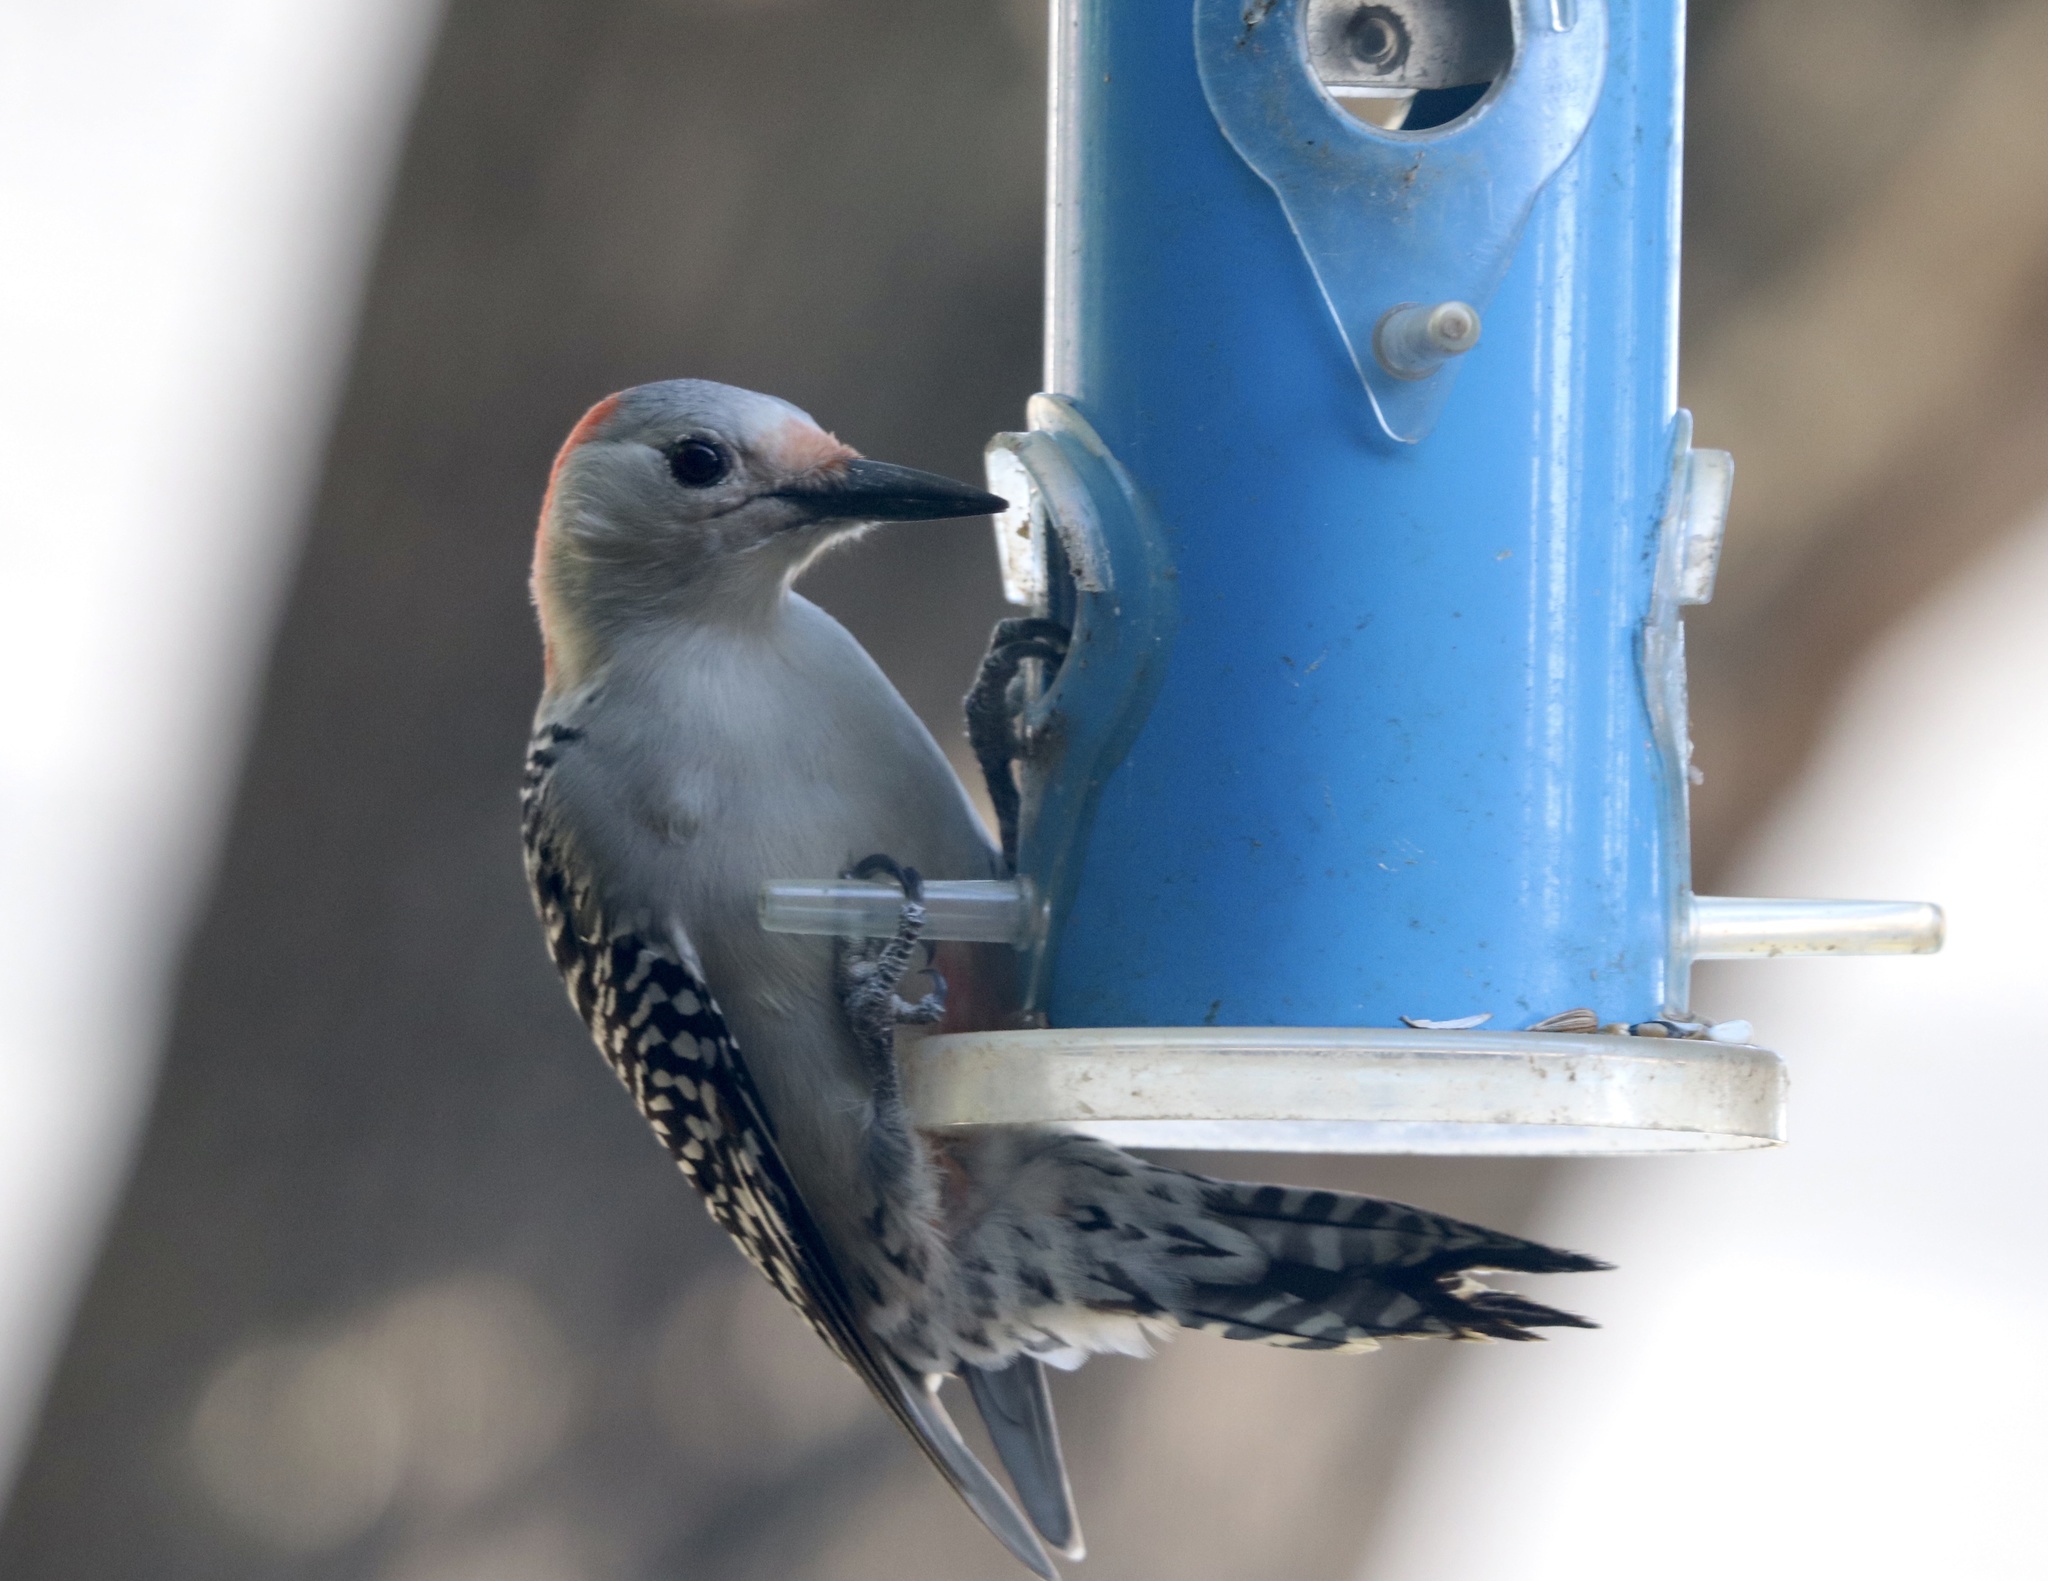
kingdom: Animalia
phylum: Chordata
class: Aves
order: Piciformes
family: Picidae
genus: Melanerpes
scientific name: Melanerpes carolinus
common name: Red-bellied woodpecker
